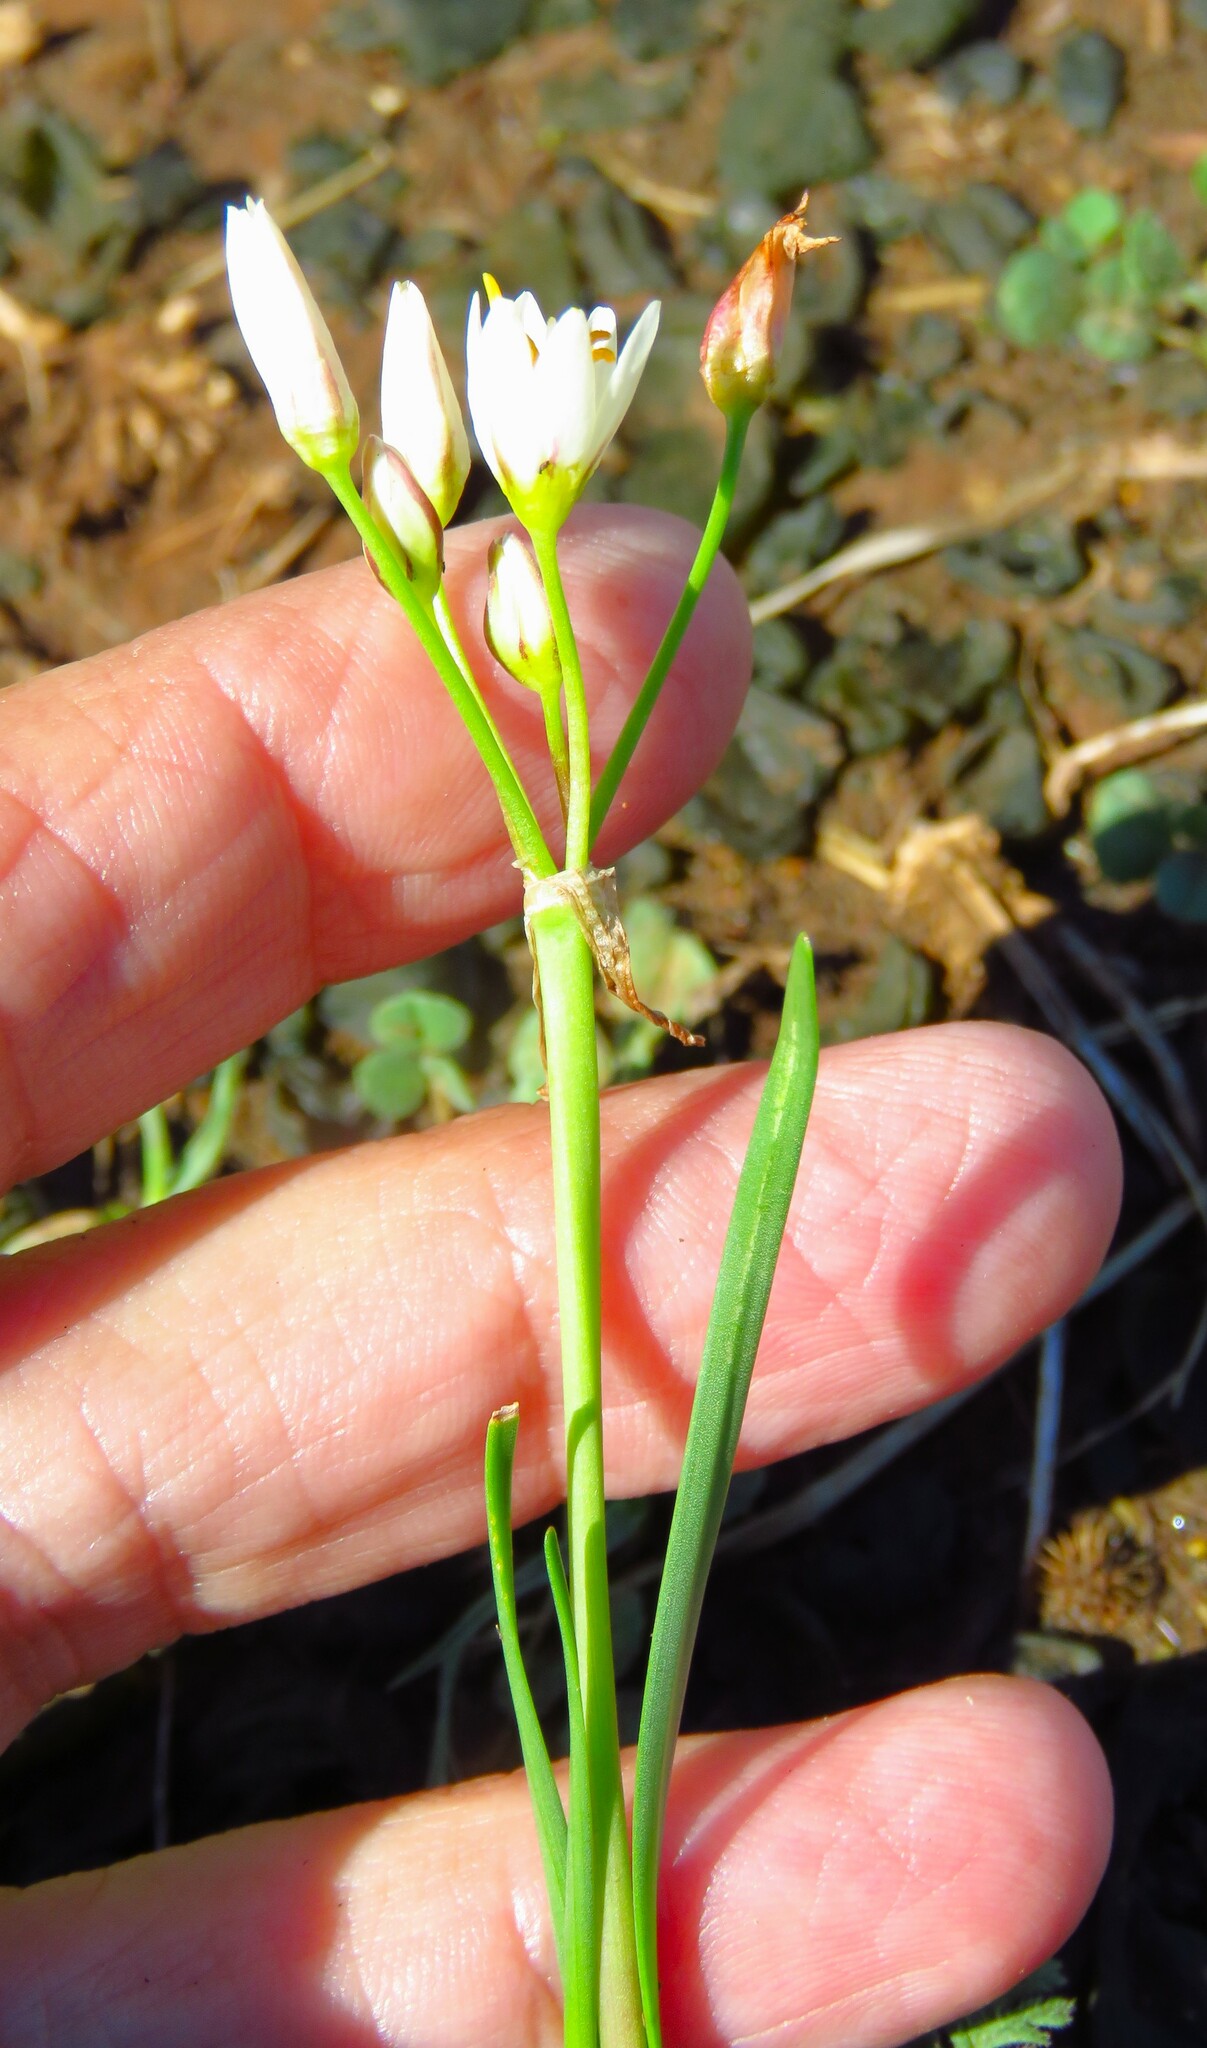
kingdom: Plantae
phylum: Tracheophyta
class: Liliopsida
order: Asparagales
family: Amaryllidaceae
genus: Nothoscordum
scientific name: Nothoscordum bivalve
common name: Crow-poison
